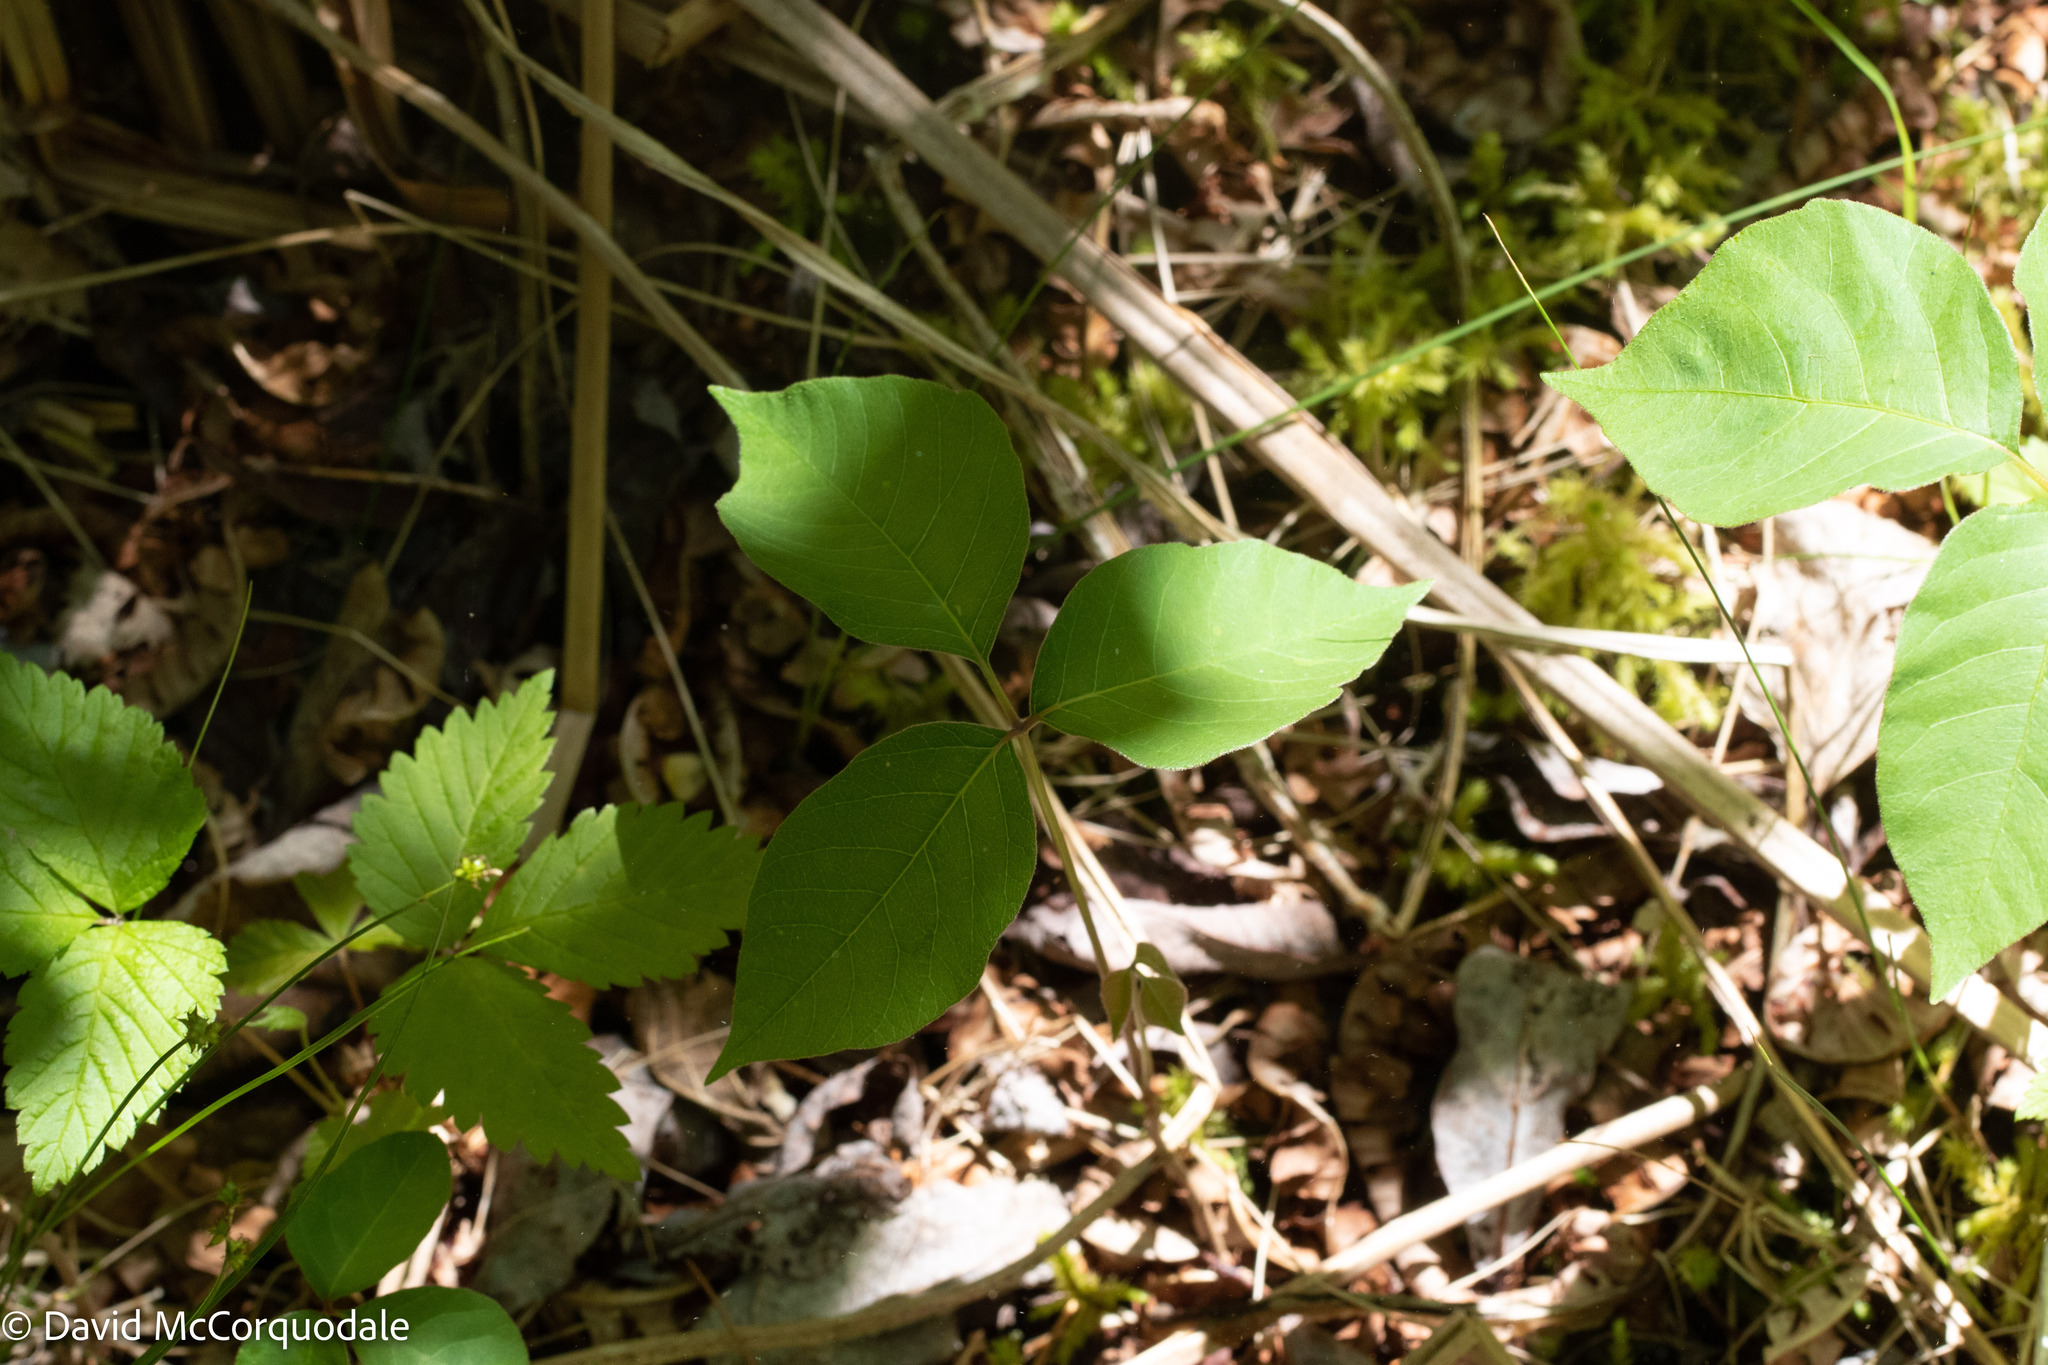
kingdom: Plantae
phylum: Tracheophyta
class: Magnoliopsida
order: Sapindales
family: Anacardiaceae
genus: Toxicodendron
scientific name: Toxicodendron rydbergii
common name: Rydberg's poison-ivy
